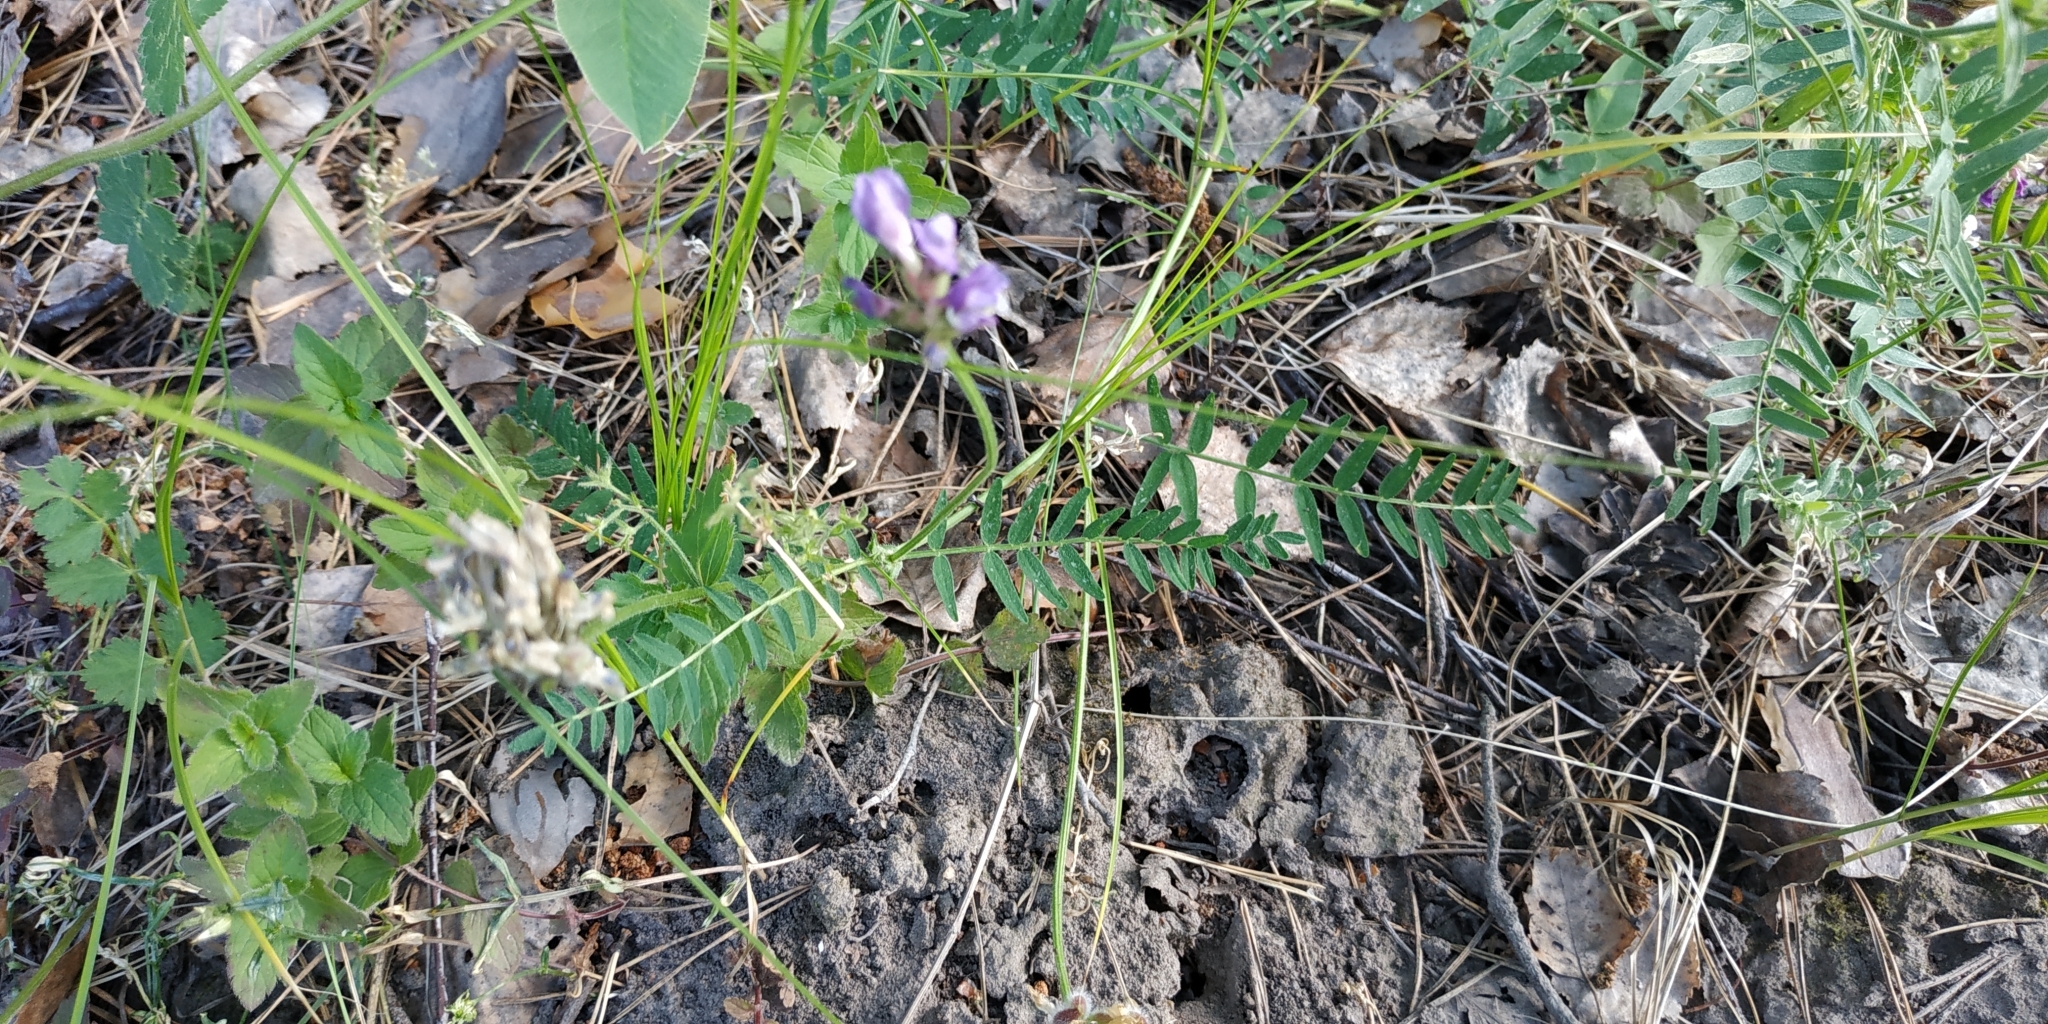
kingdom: Plantae
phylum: Tracheophyta
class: Magnoliopsida
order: Fabales
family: Fabaceae
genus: Astragalus
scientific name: Astragalus danicus
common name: Purple milk-vetch
